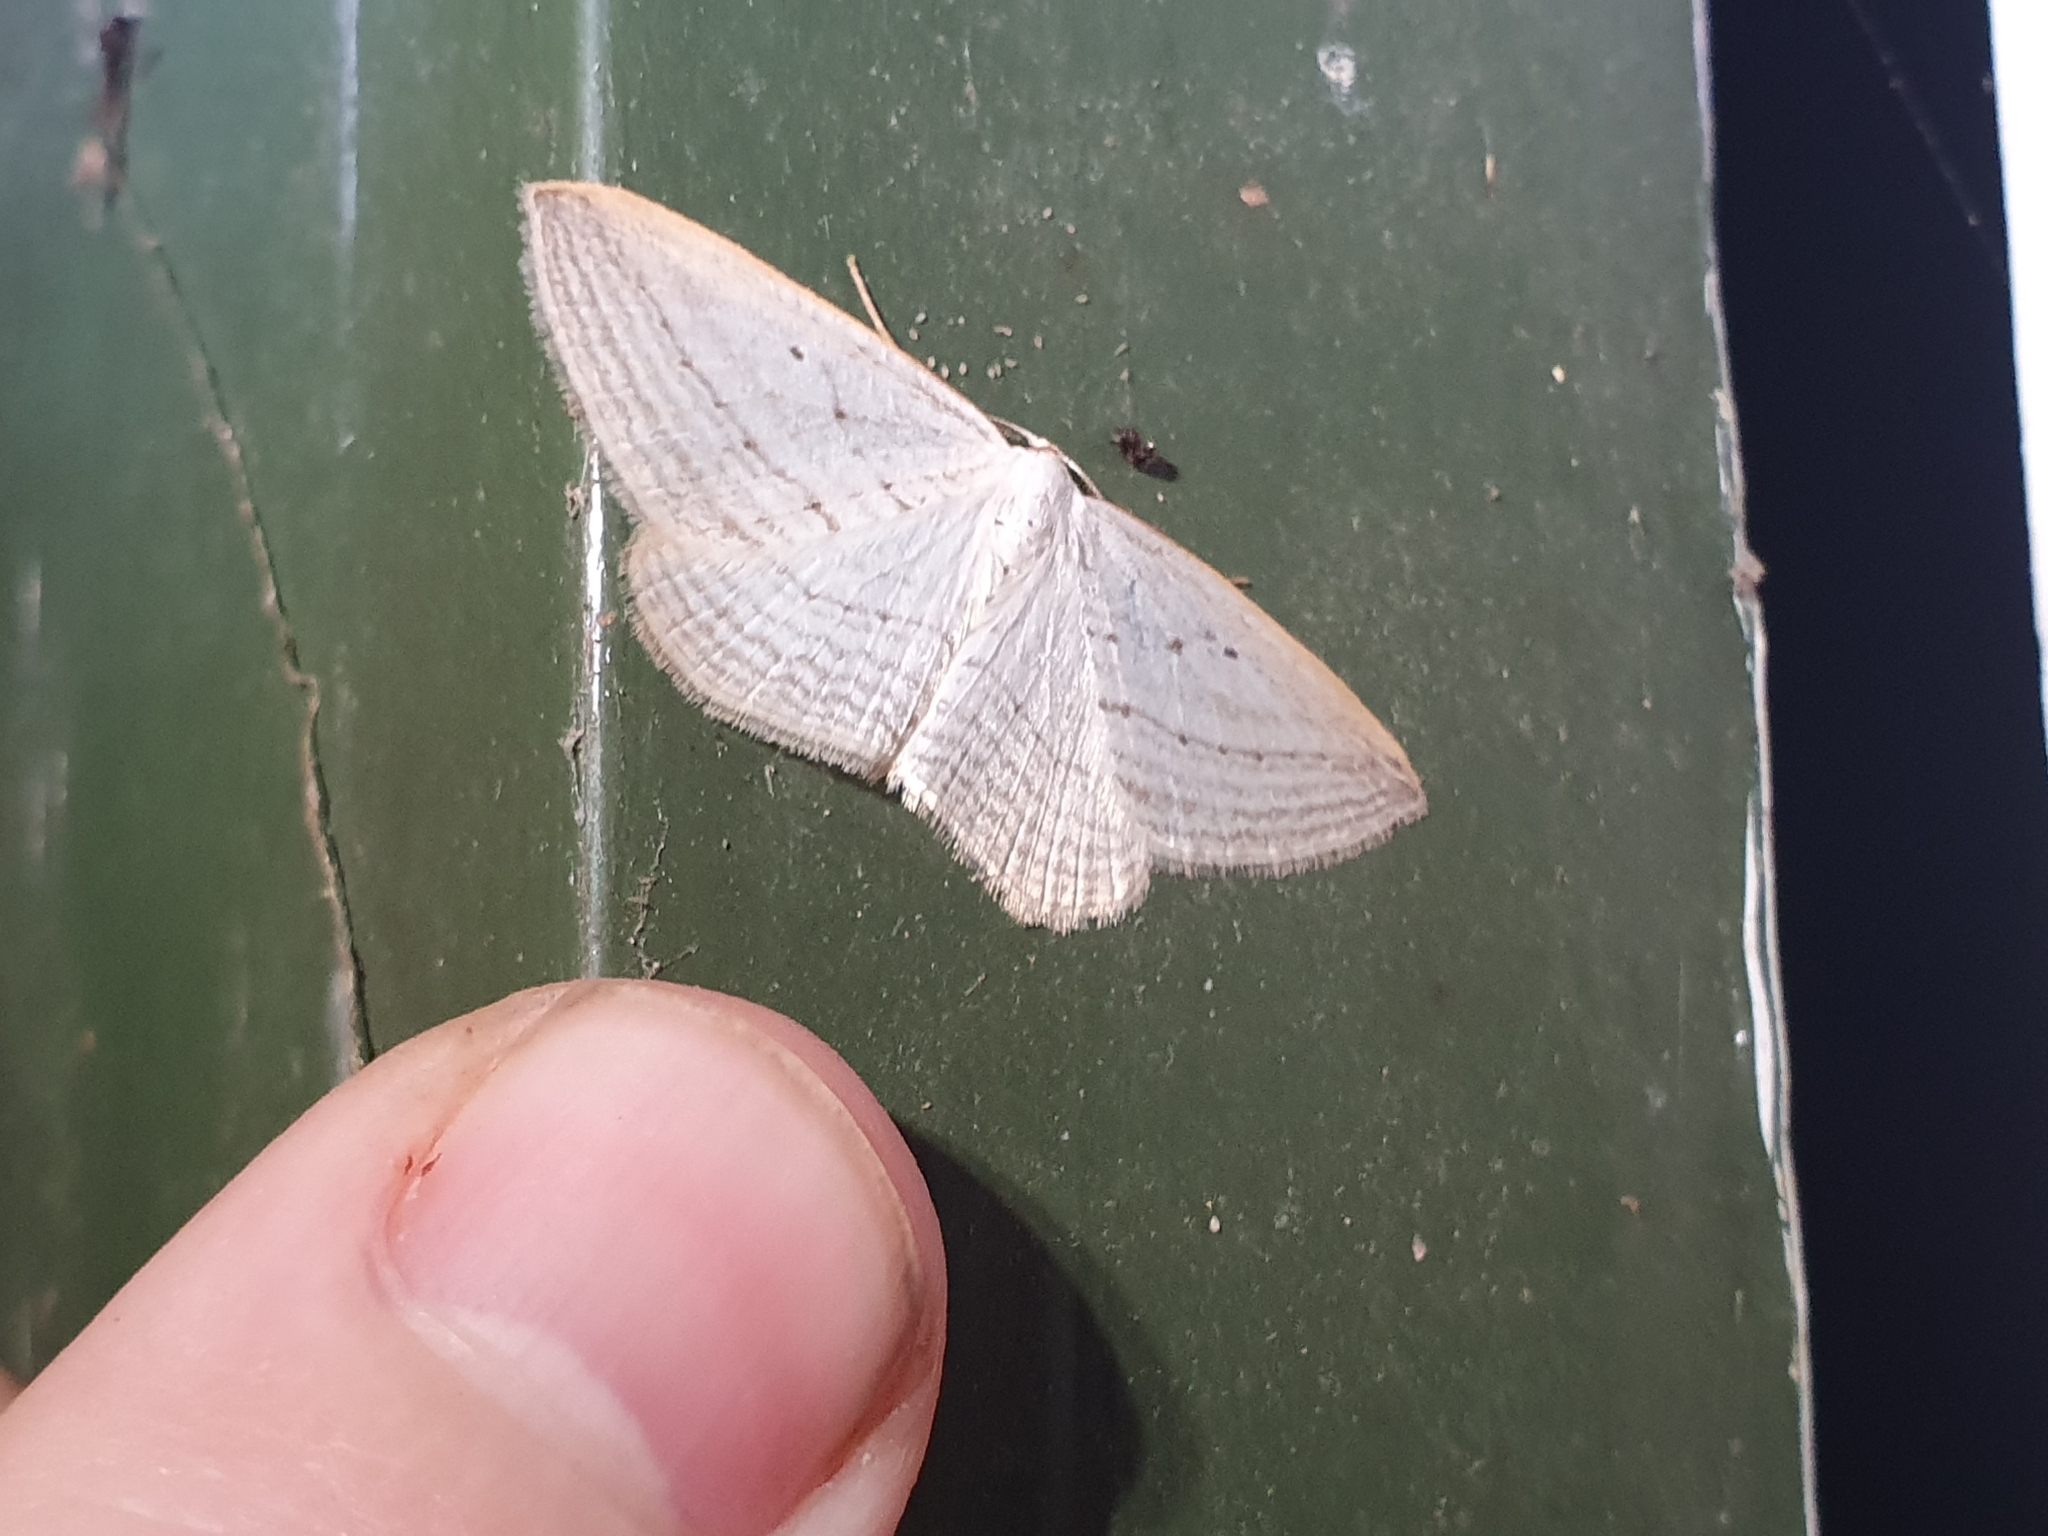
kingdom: Animalia
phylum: Arthropoda
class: Insecta
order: Lepidoptera
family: Geometridae
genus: Orthoclydon
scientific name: Orthoclydon praefectata
